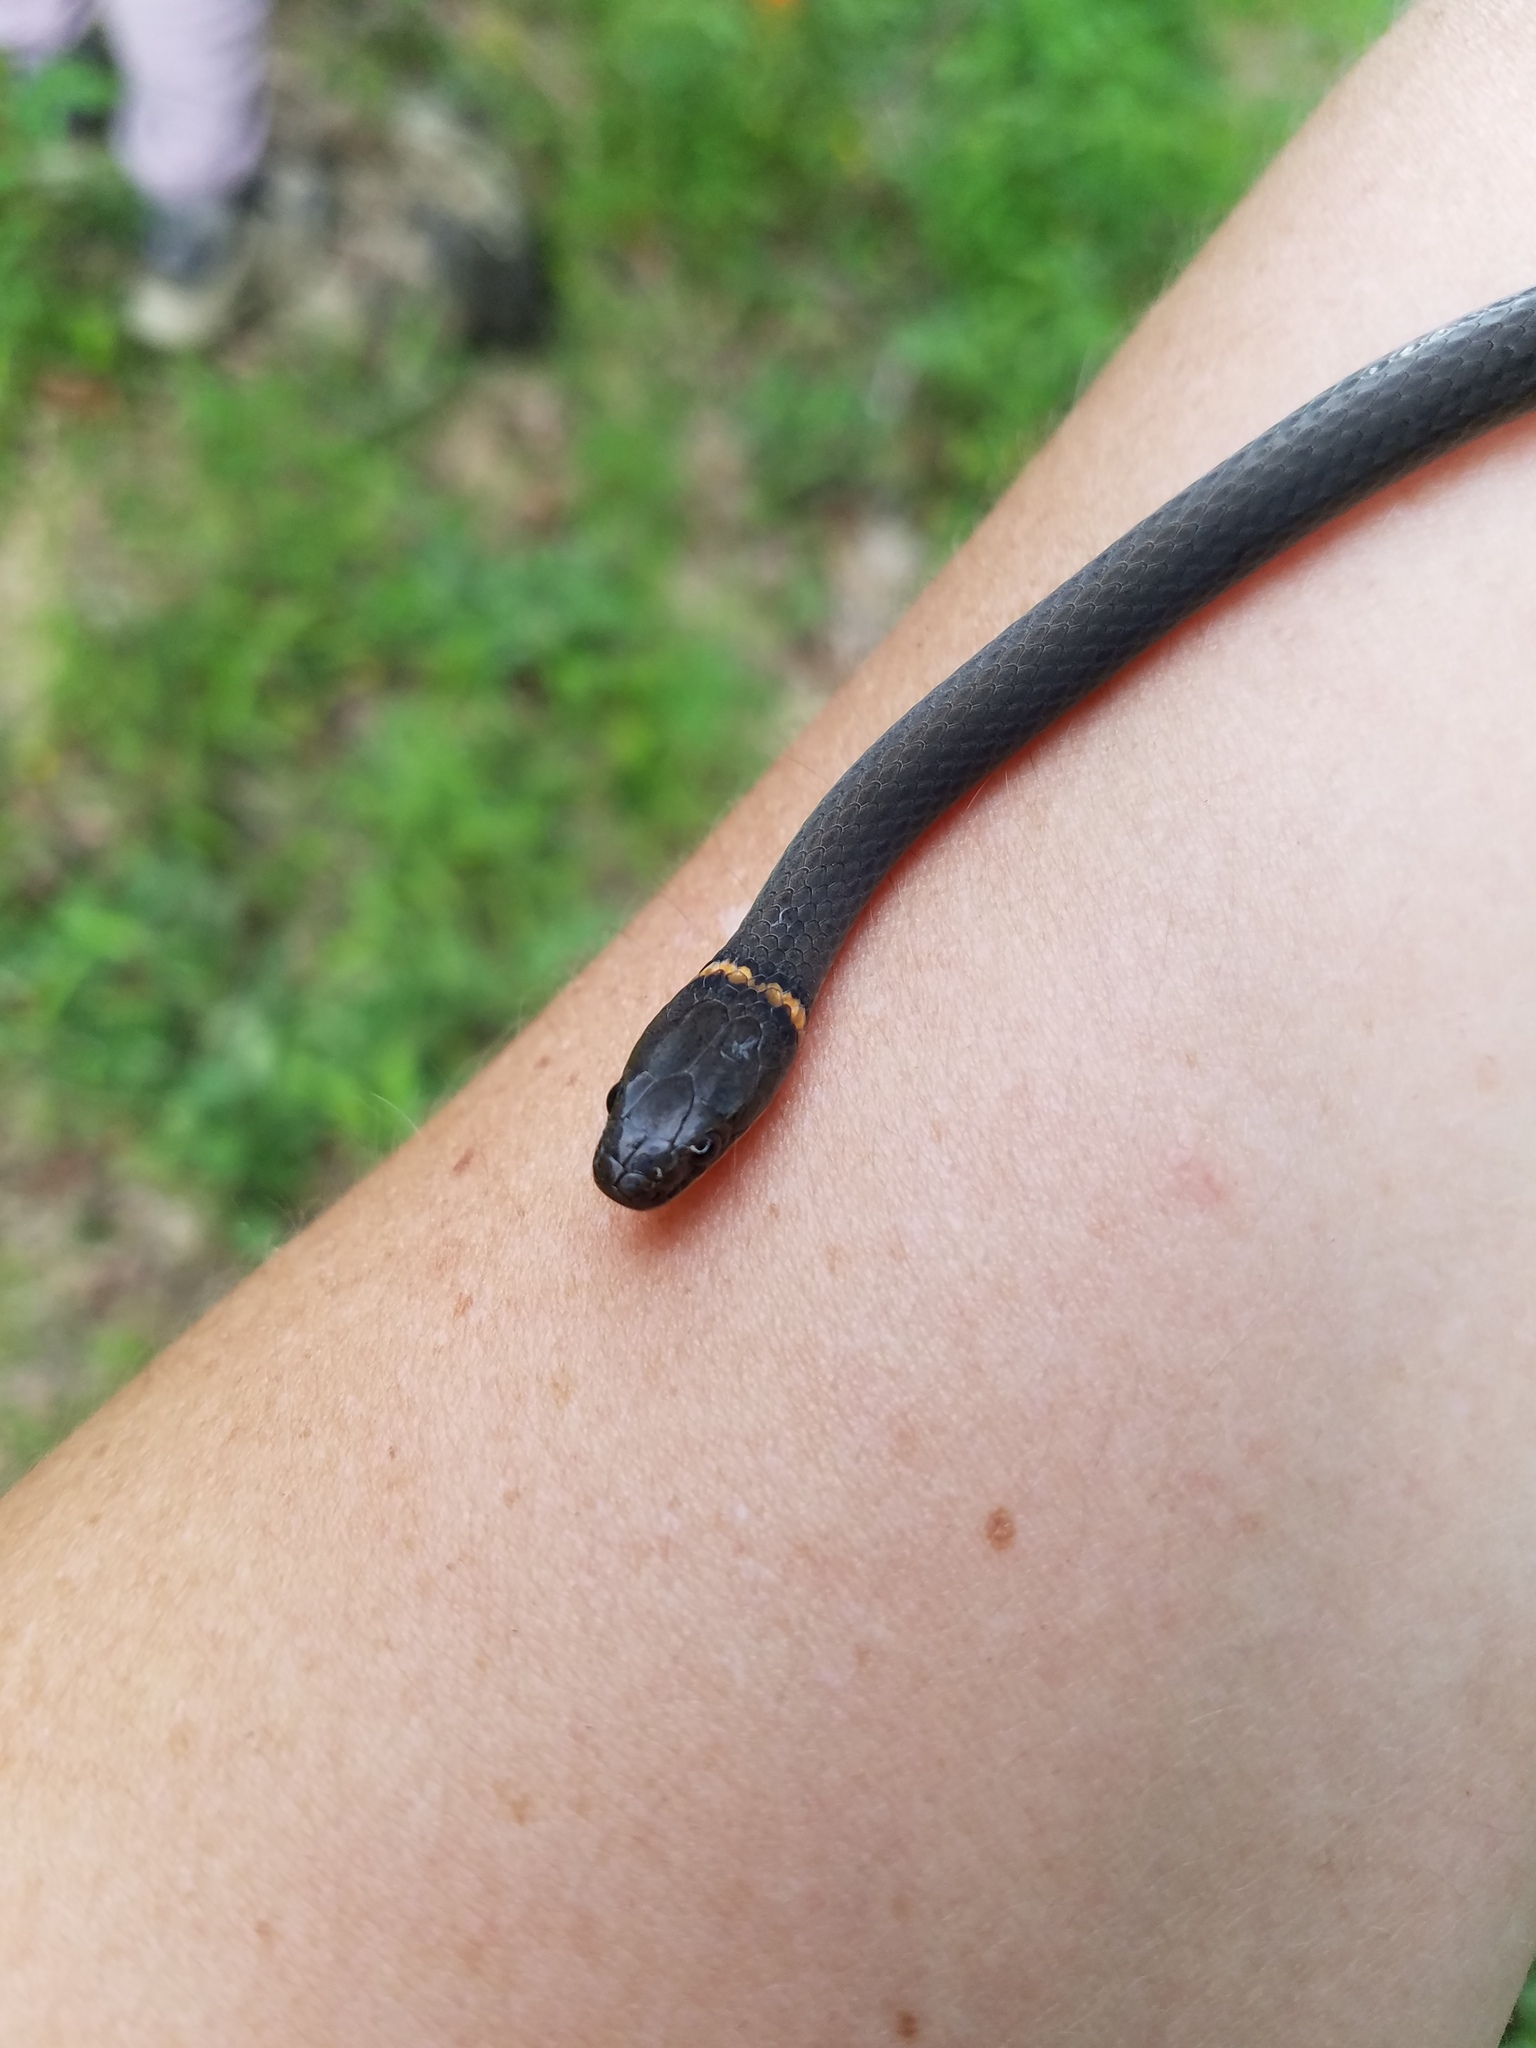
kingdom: Animalia
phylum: Chordata
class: Squamata
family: Colubridae
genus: Diadophis
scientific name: Diadophis punctatus
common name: Ringneck snake
